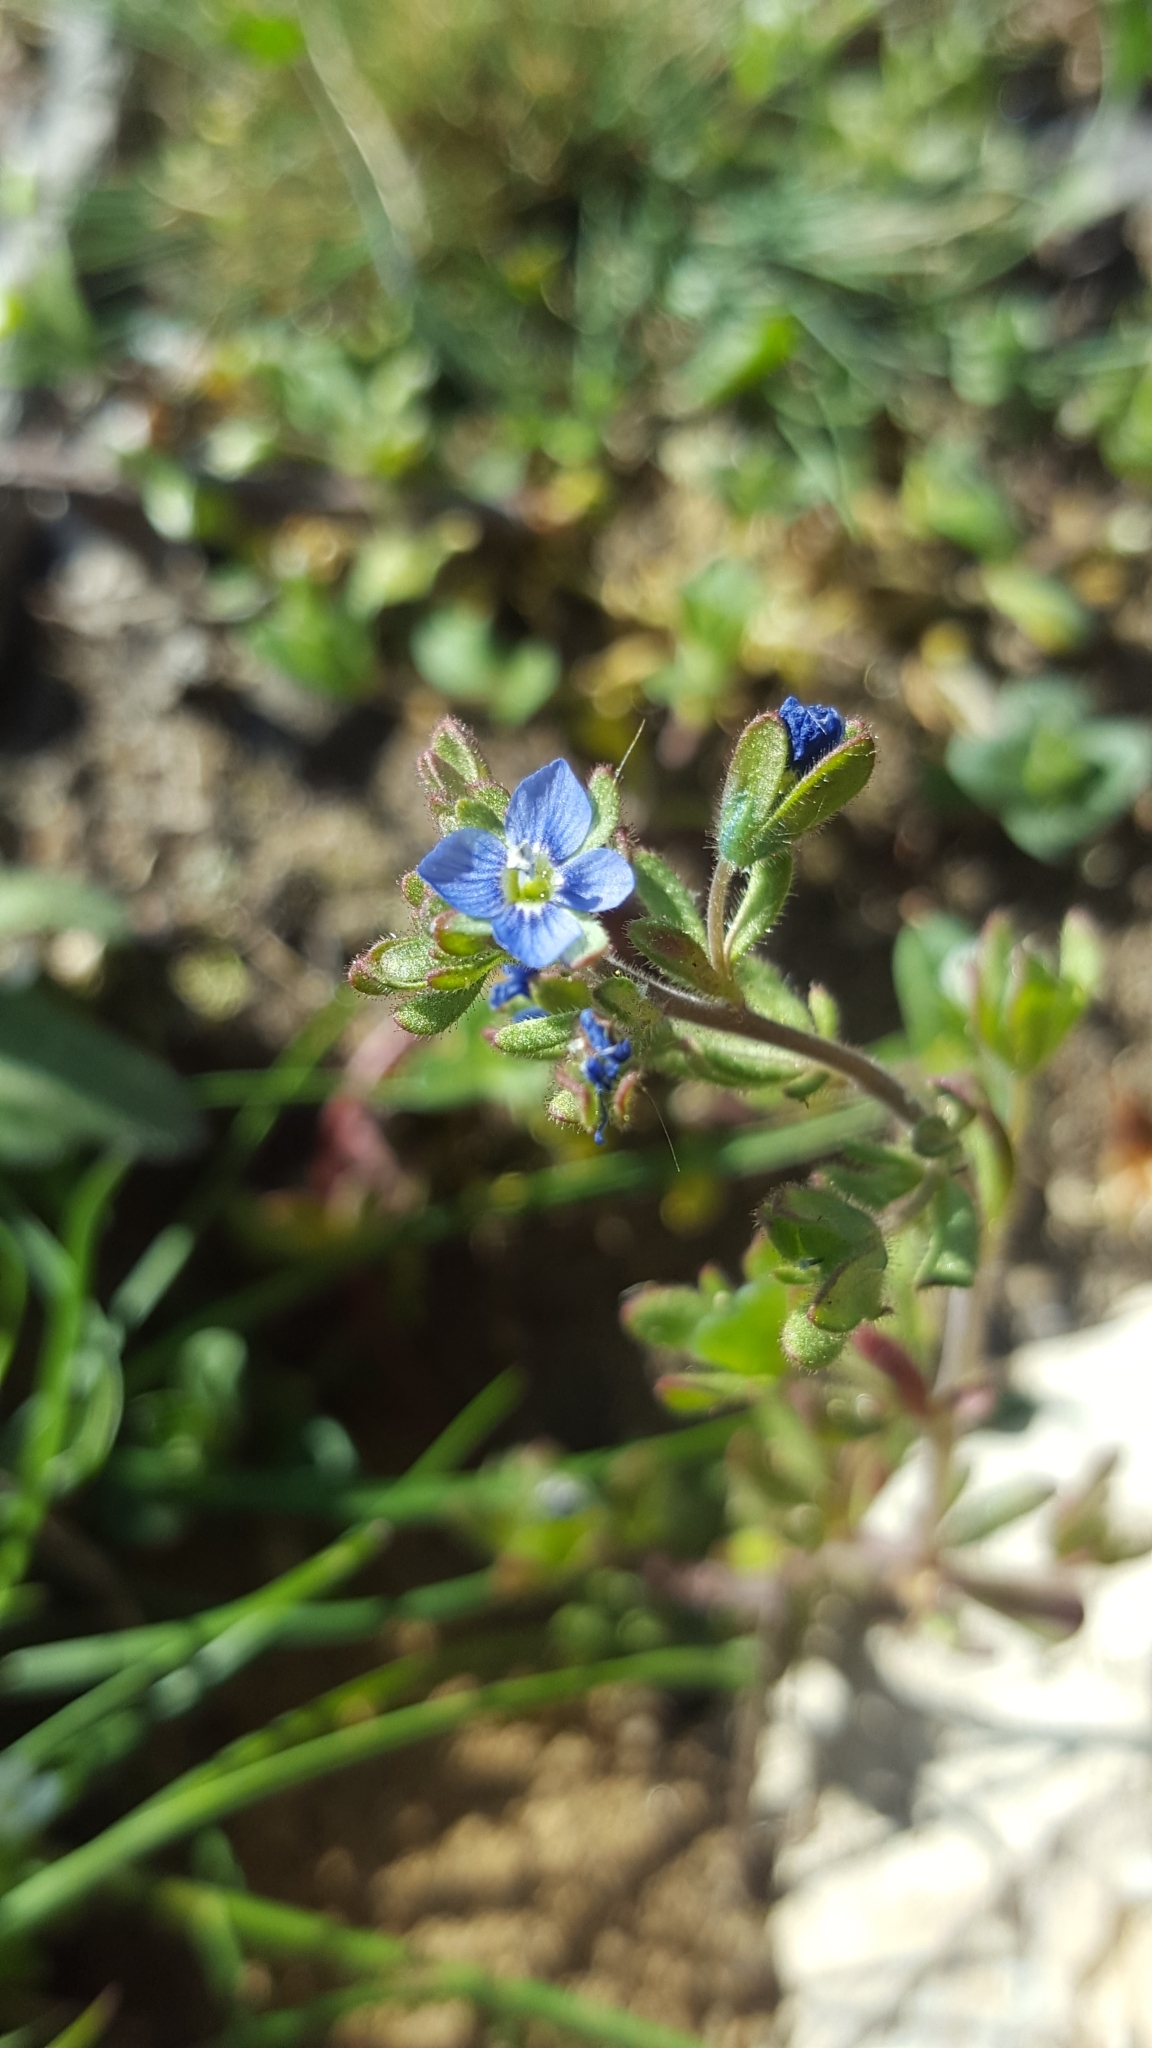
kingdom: Plantae
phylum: Tracheophyta
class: Magnoliopsida
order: Lamiales
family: Plantaginaceae
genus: Veronica
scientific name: Veronica triphyllos
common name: Fingered speedwell
